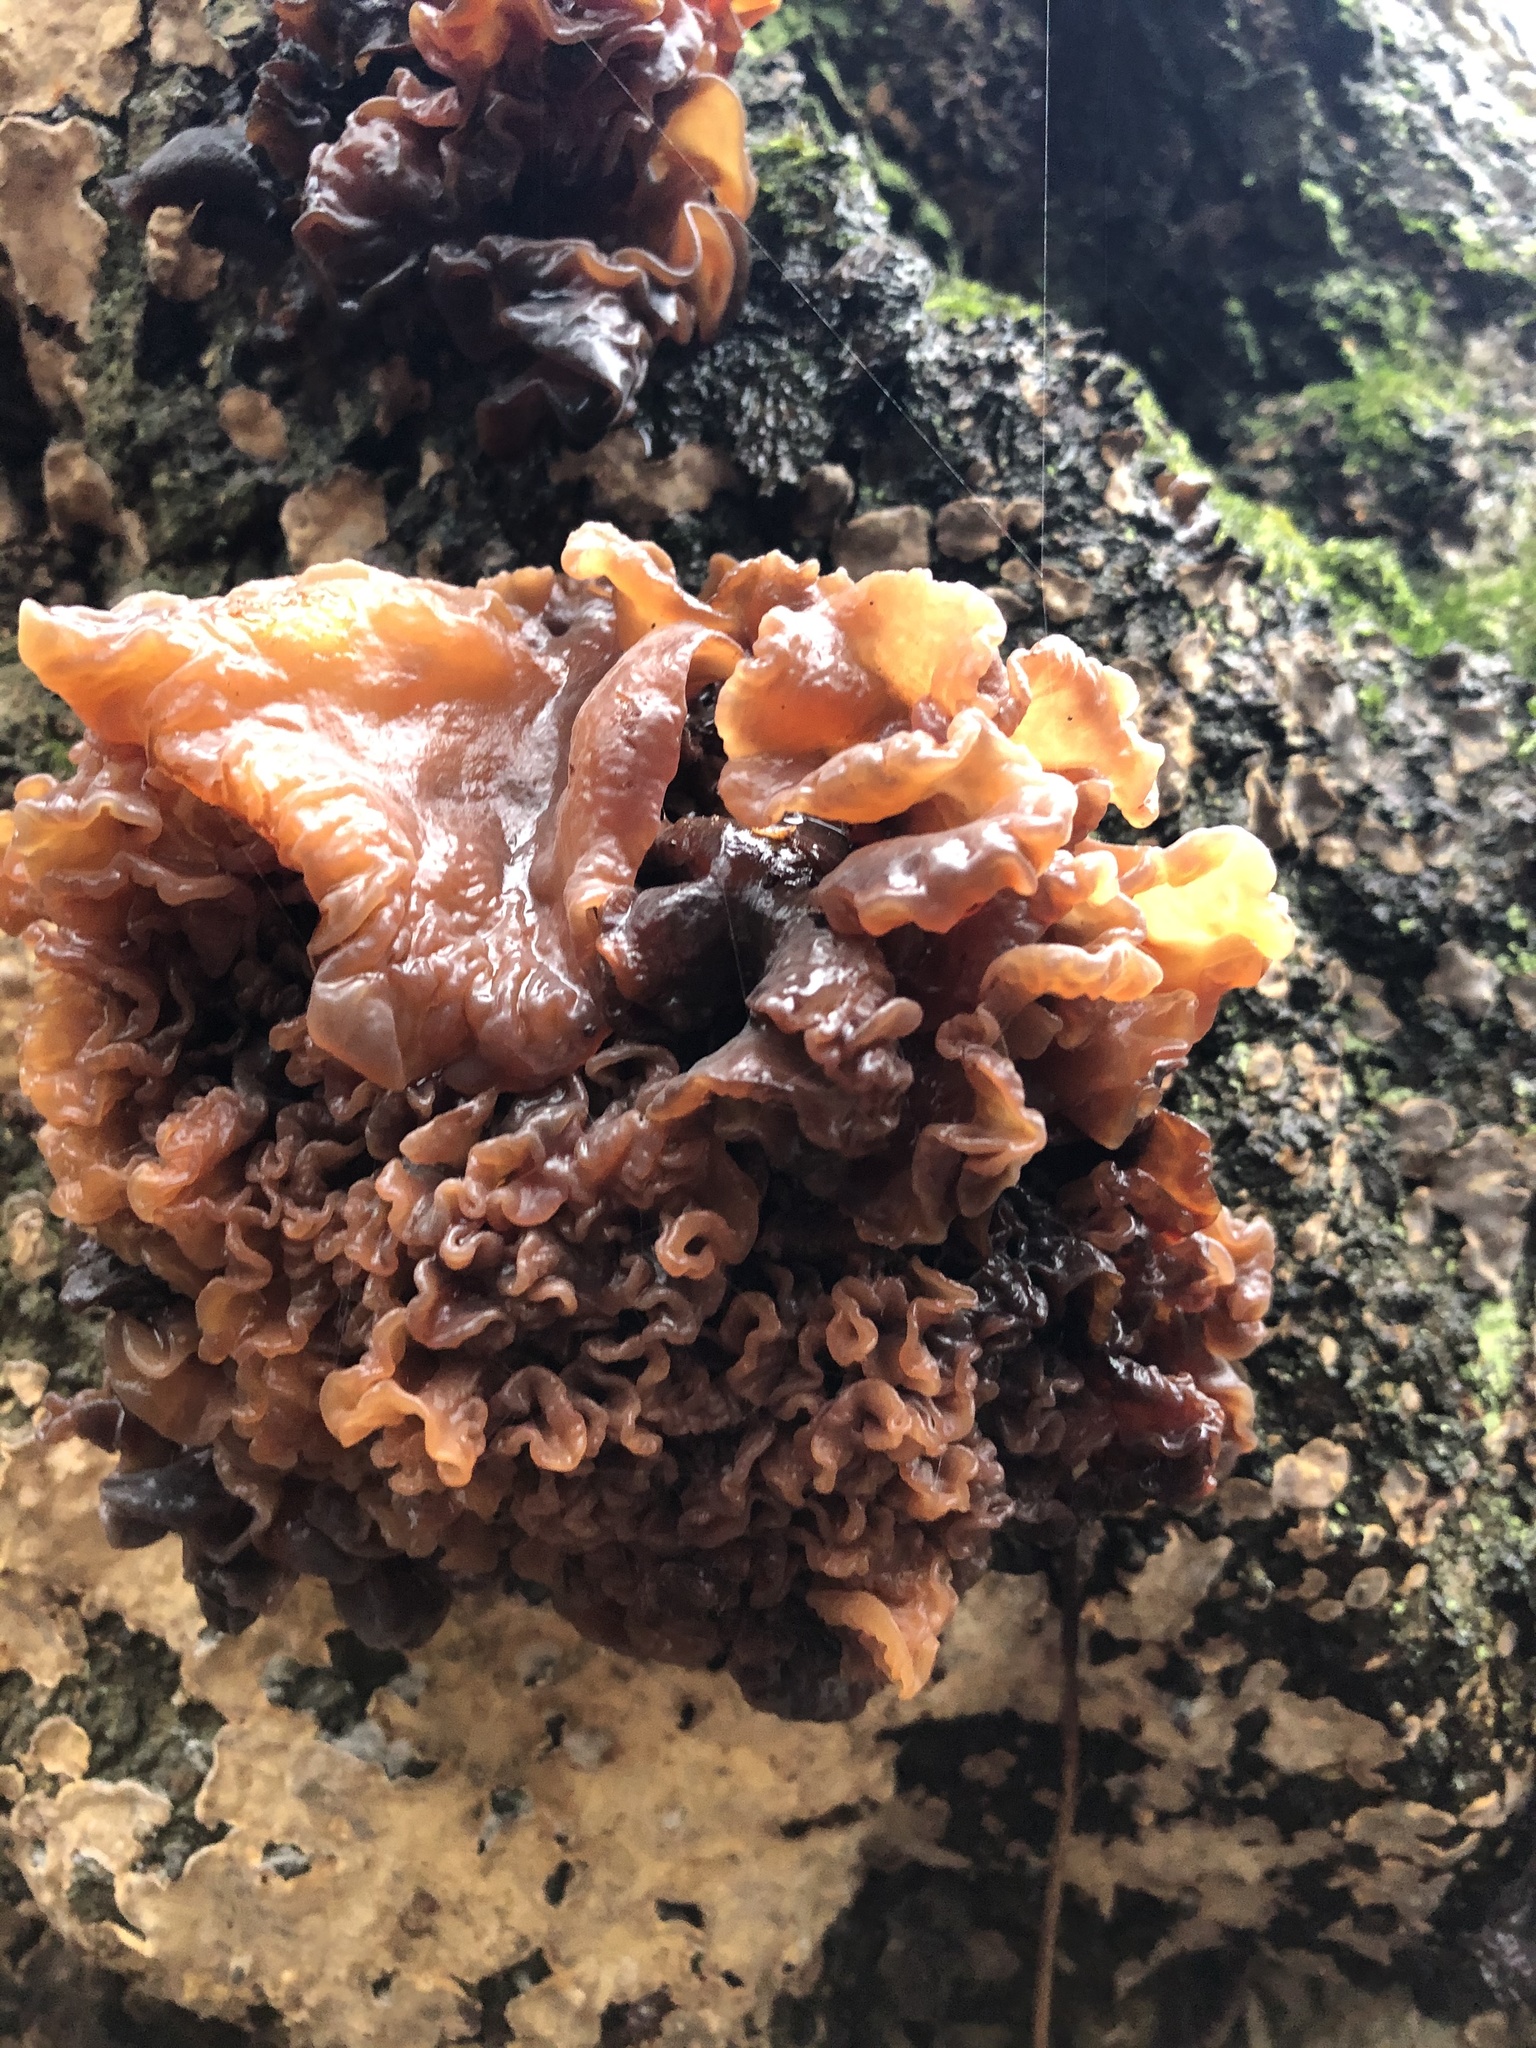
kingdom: Fungi
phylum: Basidiomycota
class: Agaricomycetes
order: Russulales
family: Stereaceae
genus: Stereum
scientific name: Stereum rugosum
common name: Bleeding broadleaf crust
